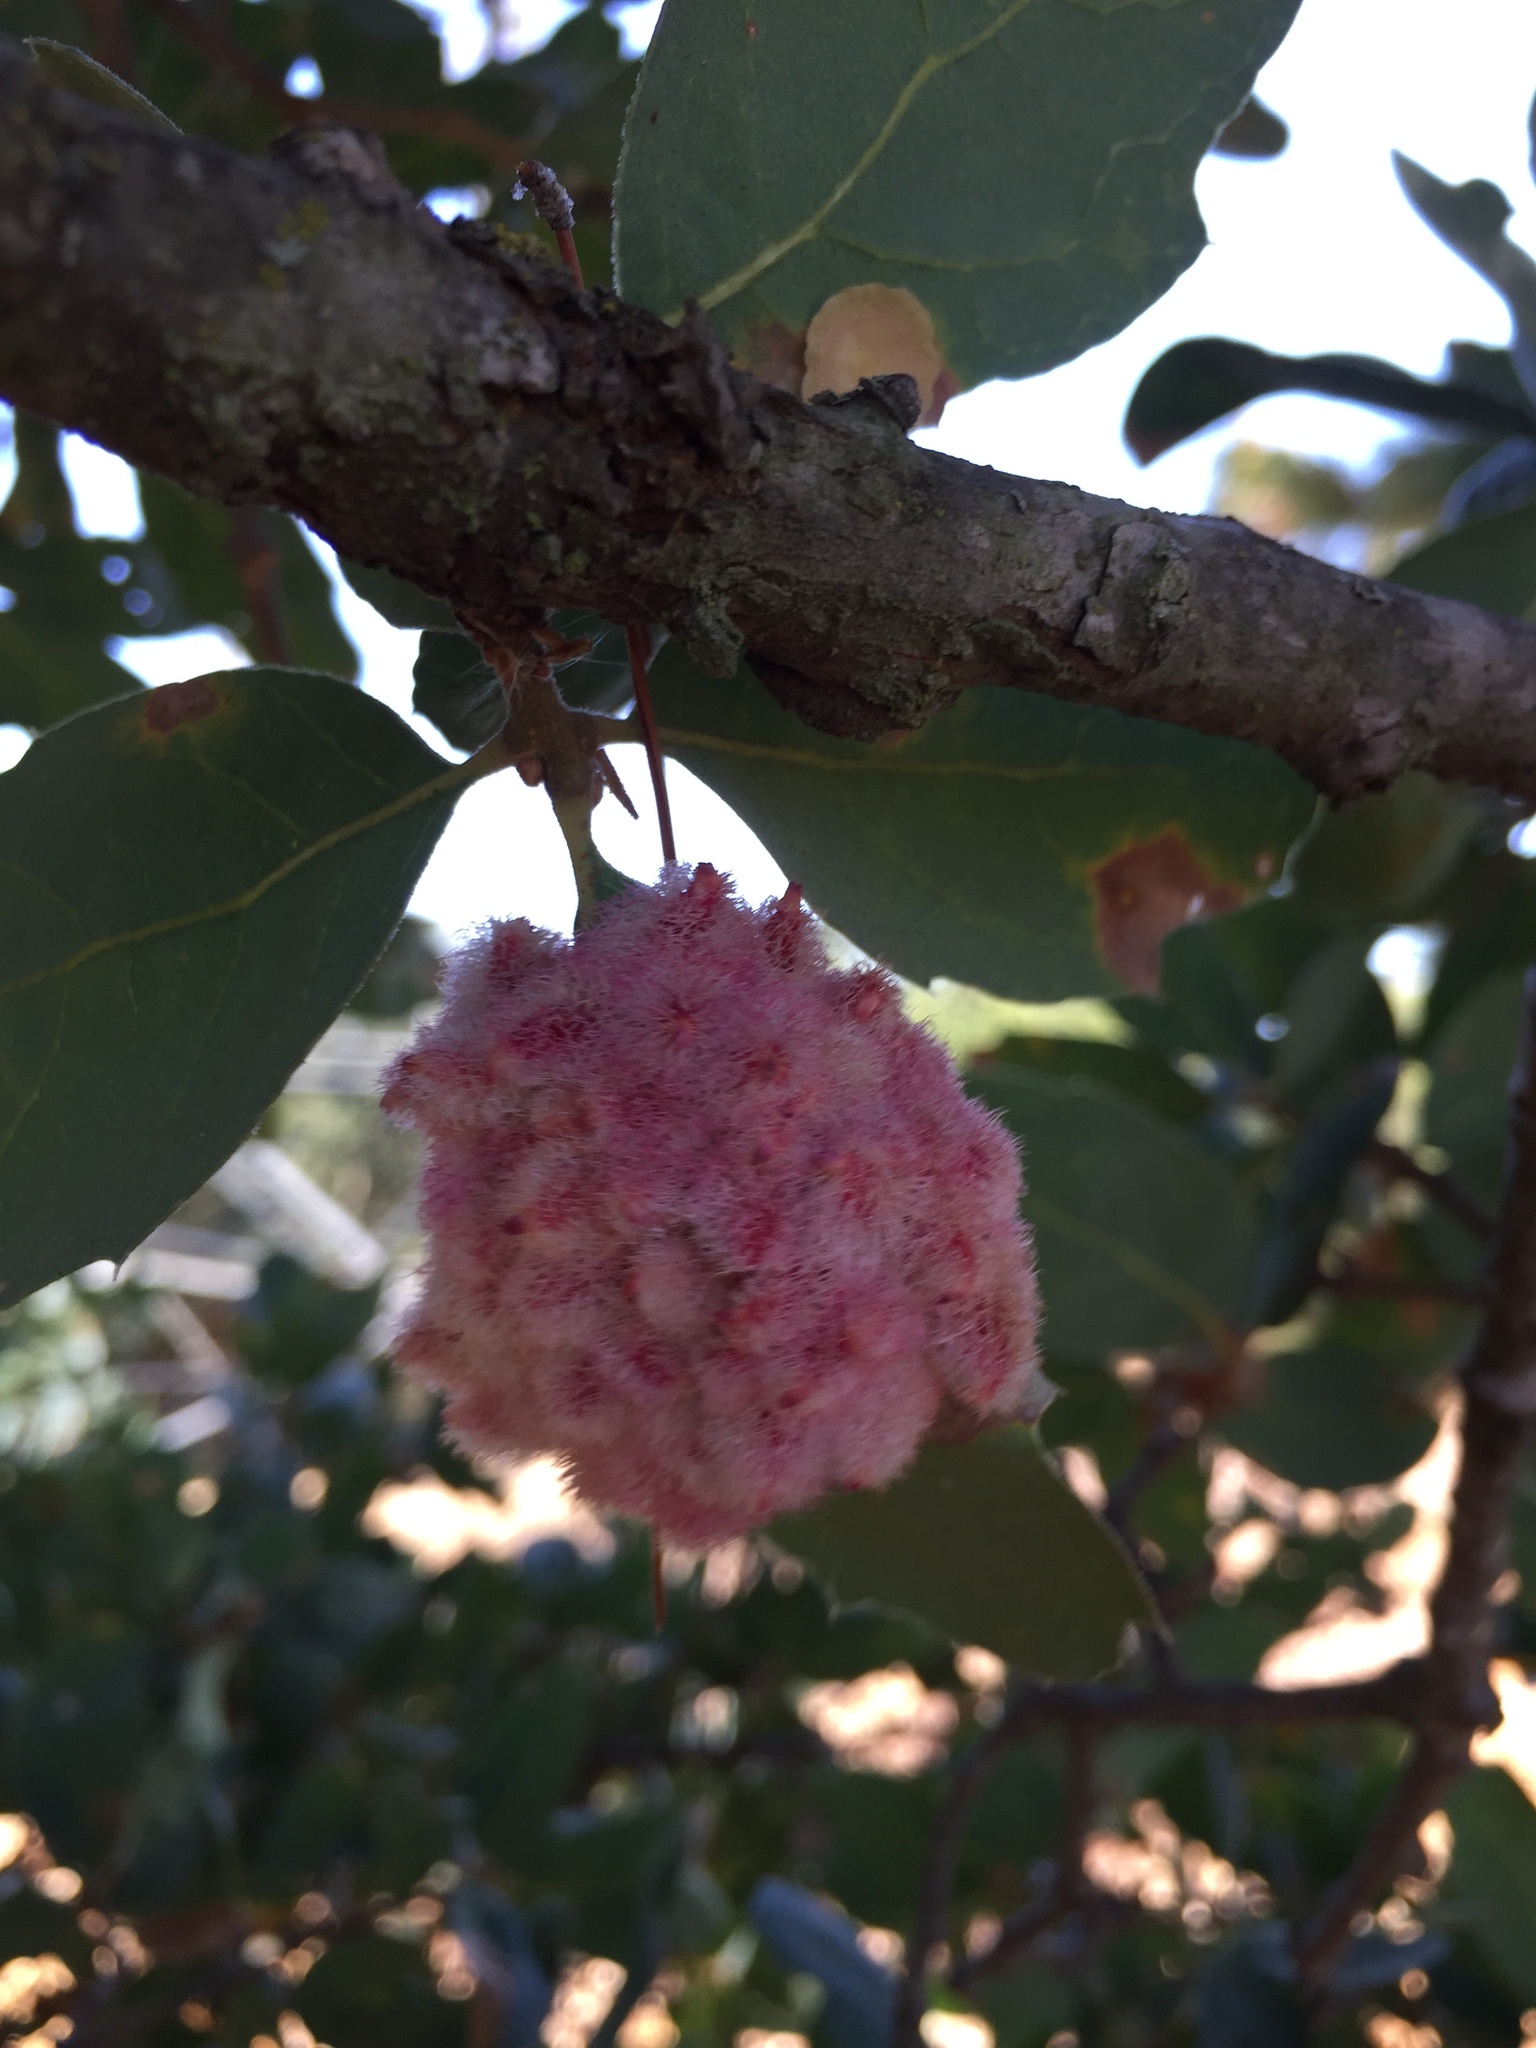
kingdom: Animalia
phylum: Arthropoda
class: Insecta
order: Hymenoptera
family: Cynipidae
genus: Andricus
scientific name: Andricus
